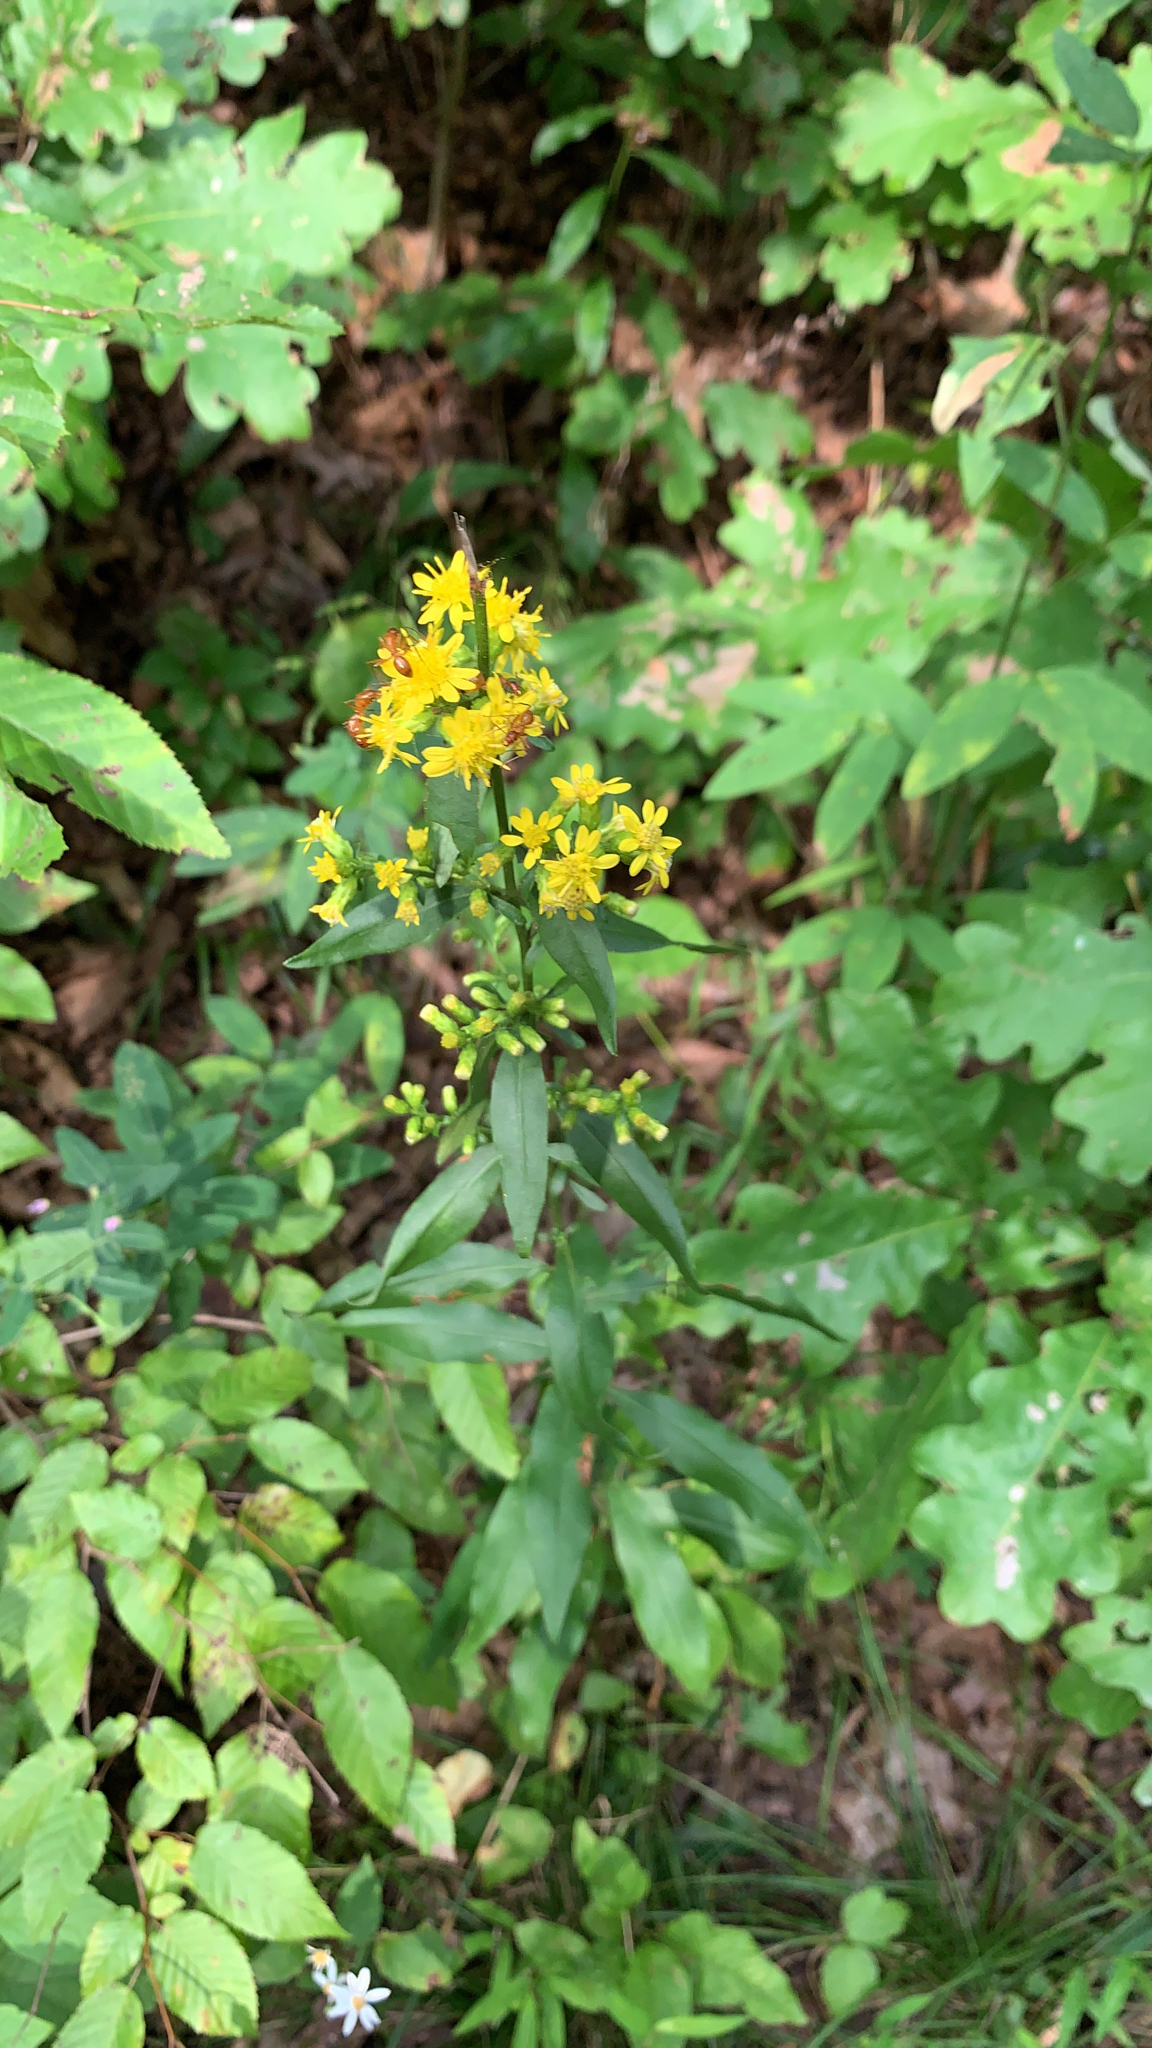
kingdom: Plantae
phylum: Tracheophyta
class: Magnoliopsida
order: Asterales
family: Asteraceae
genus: Solidago
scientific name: Solidago erecta
